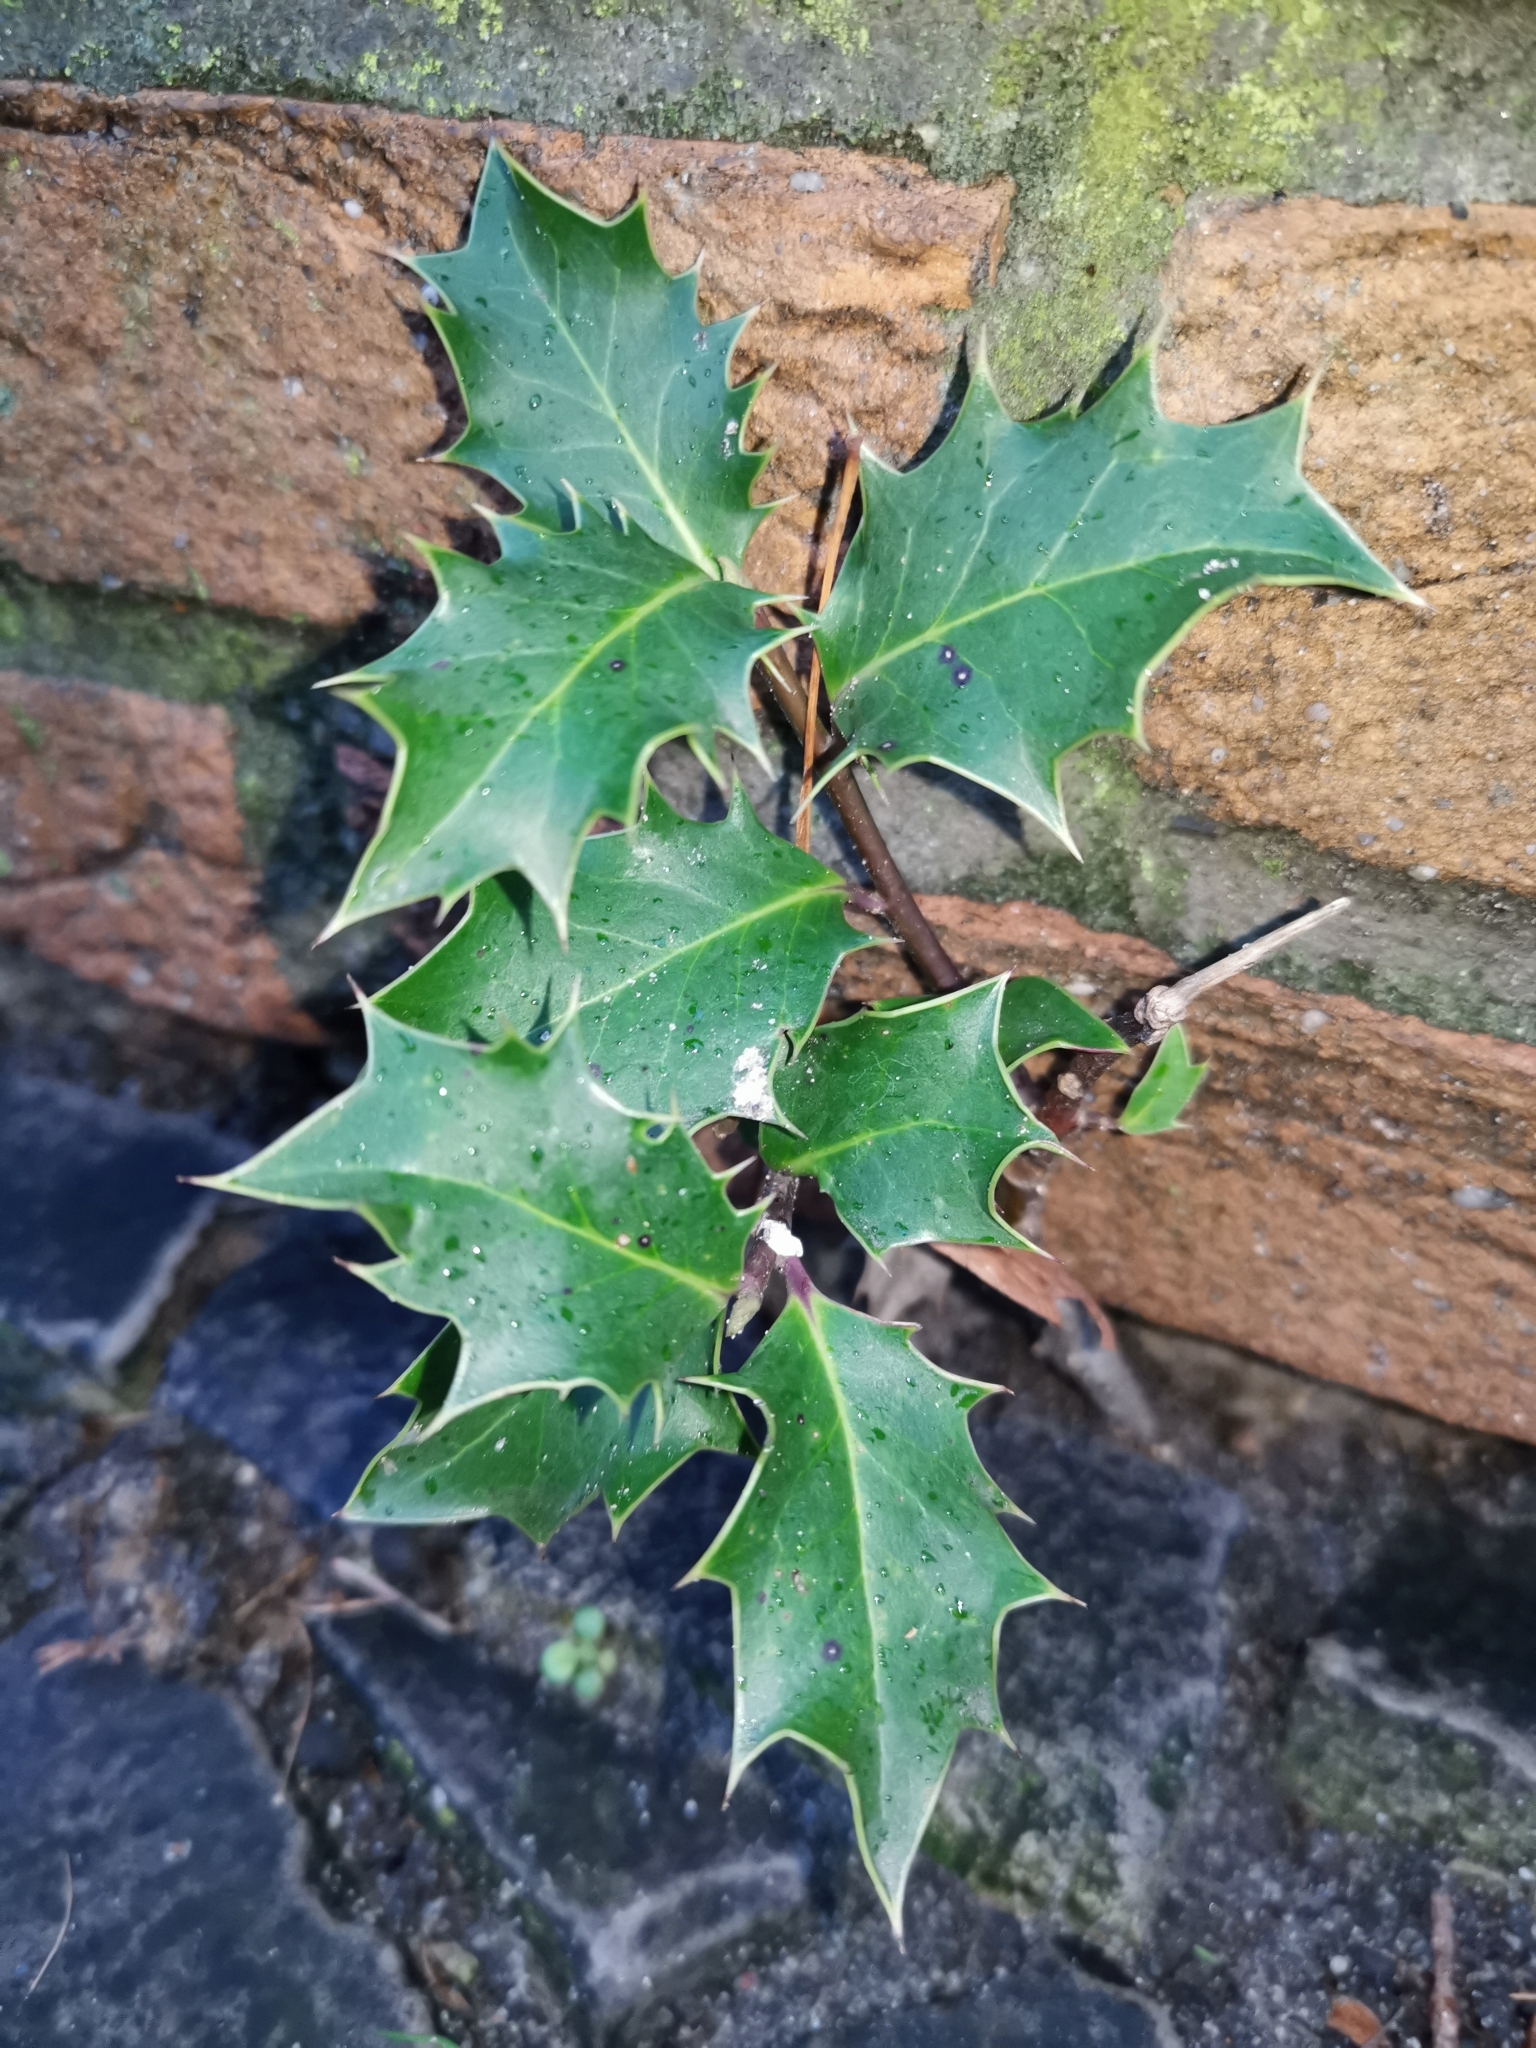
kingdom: Plantae
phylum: Tracheophyta
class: Magnoliopsida
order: Aquifoliales
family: Aquifoliaceae
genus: Ilex
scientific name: Ilex aquifolium
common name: English holly
